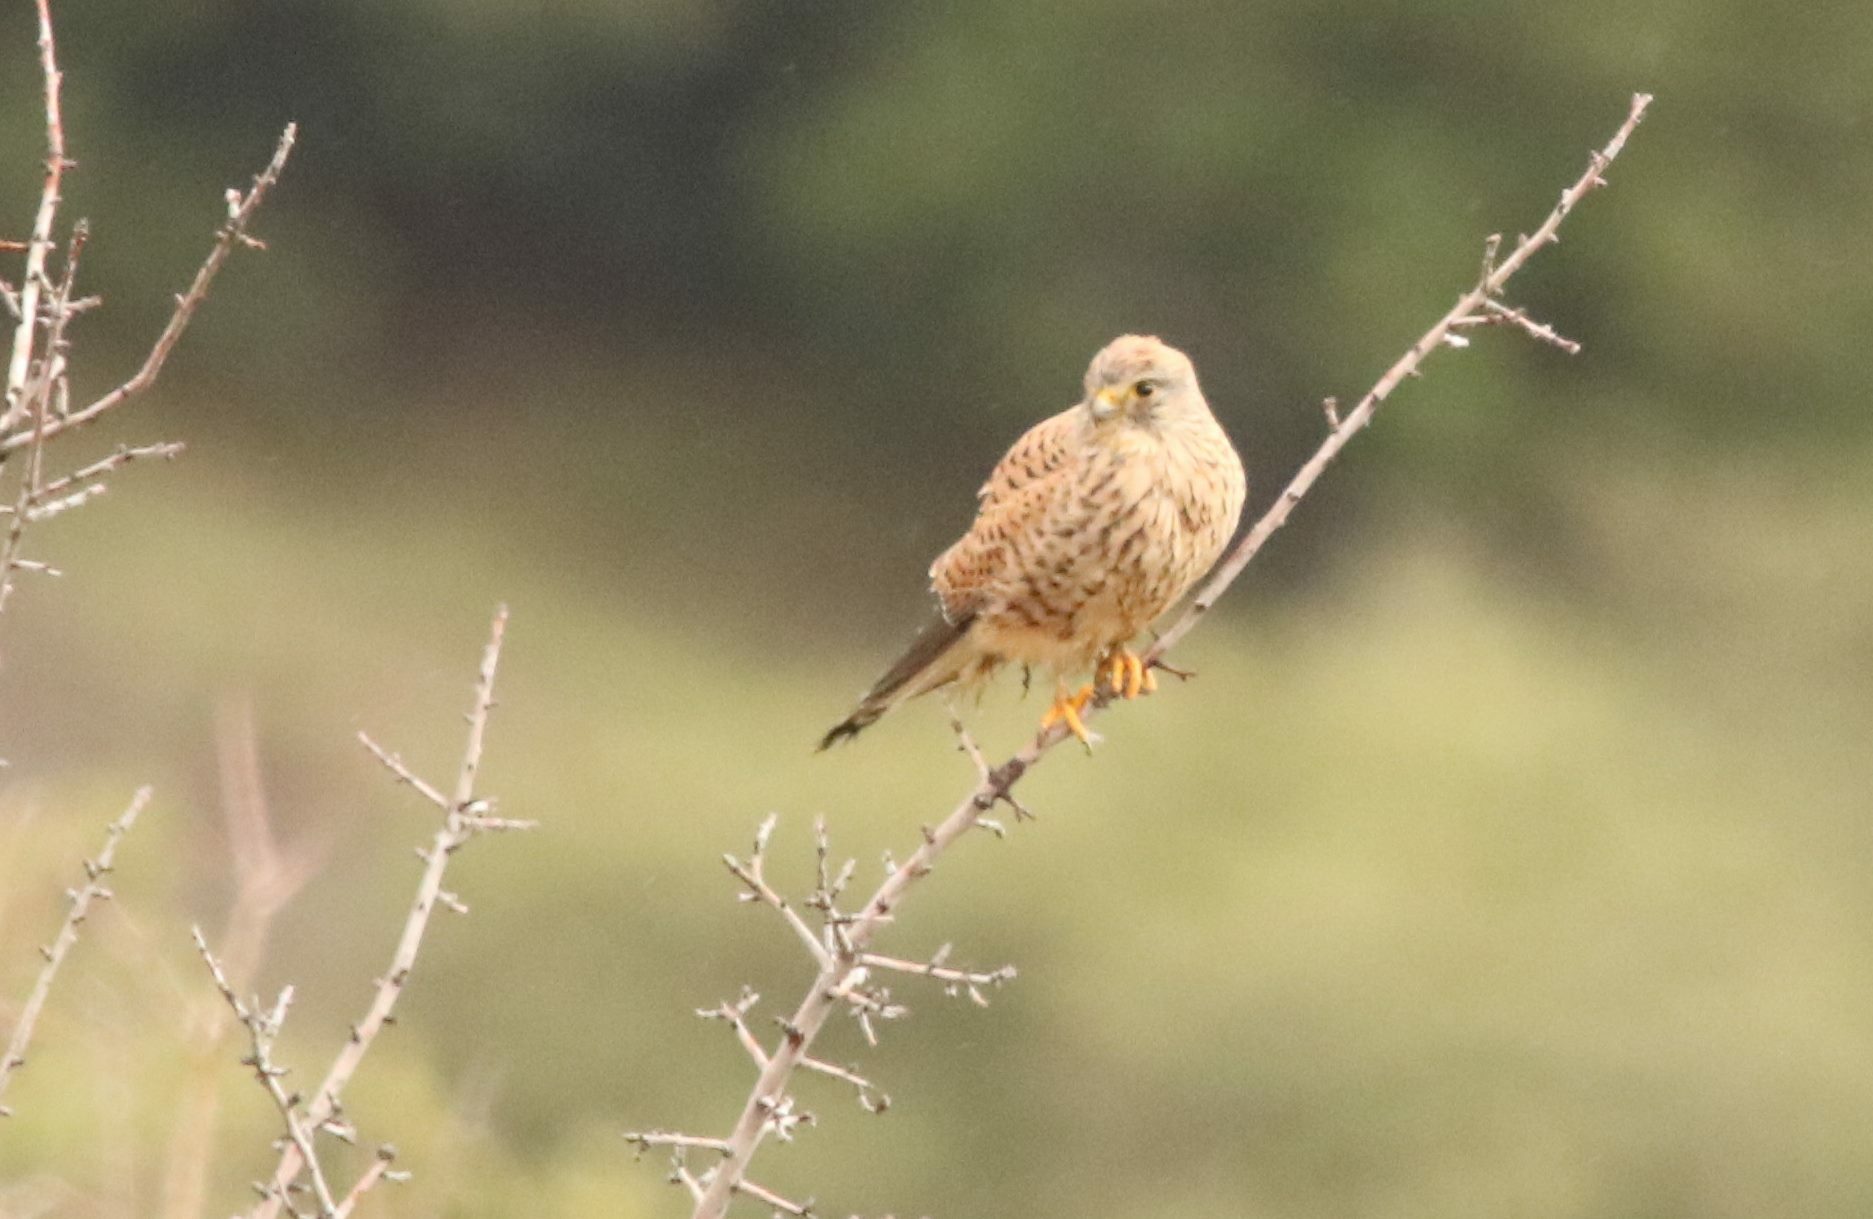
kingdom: Animalia
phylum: Chordata
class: Aves
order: Falconiformes
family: Falconidae
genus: Falco
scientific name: Falco tinnunculus
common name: Common kestrel
